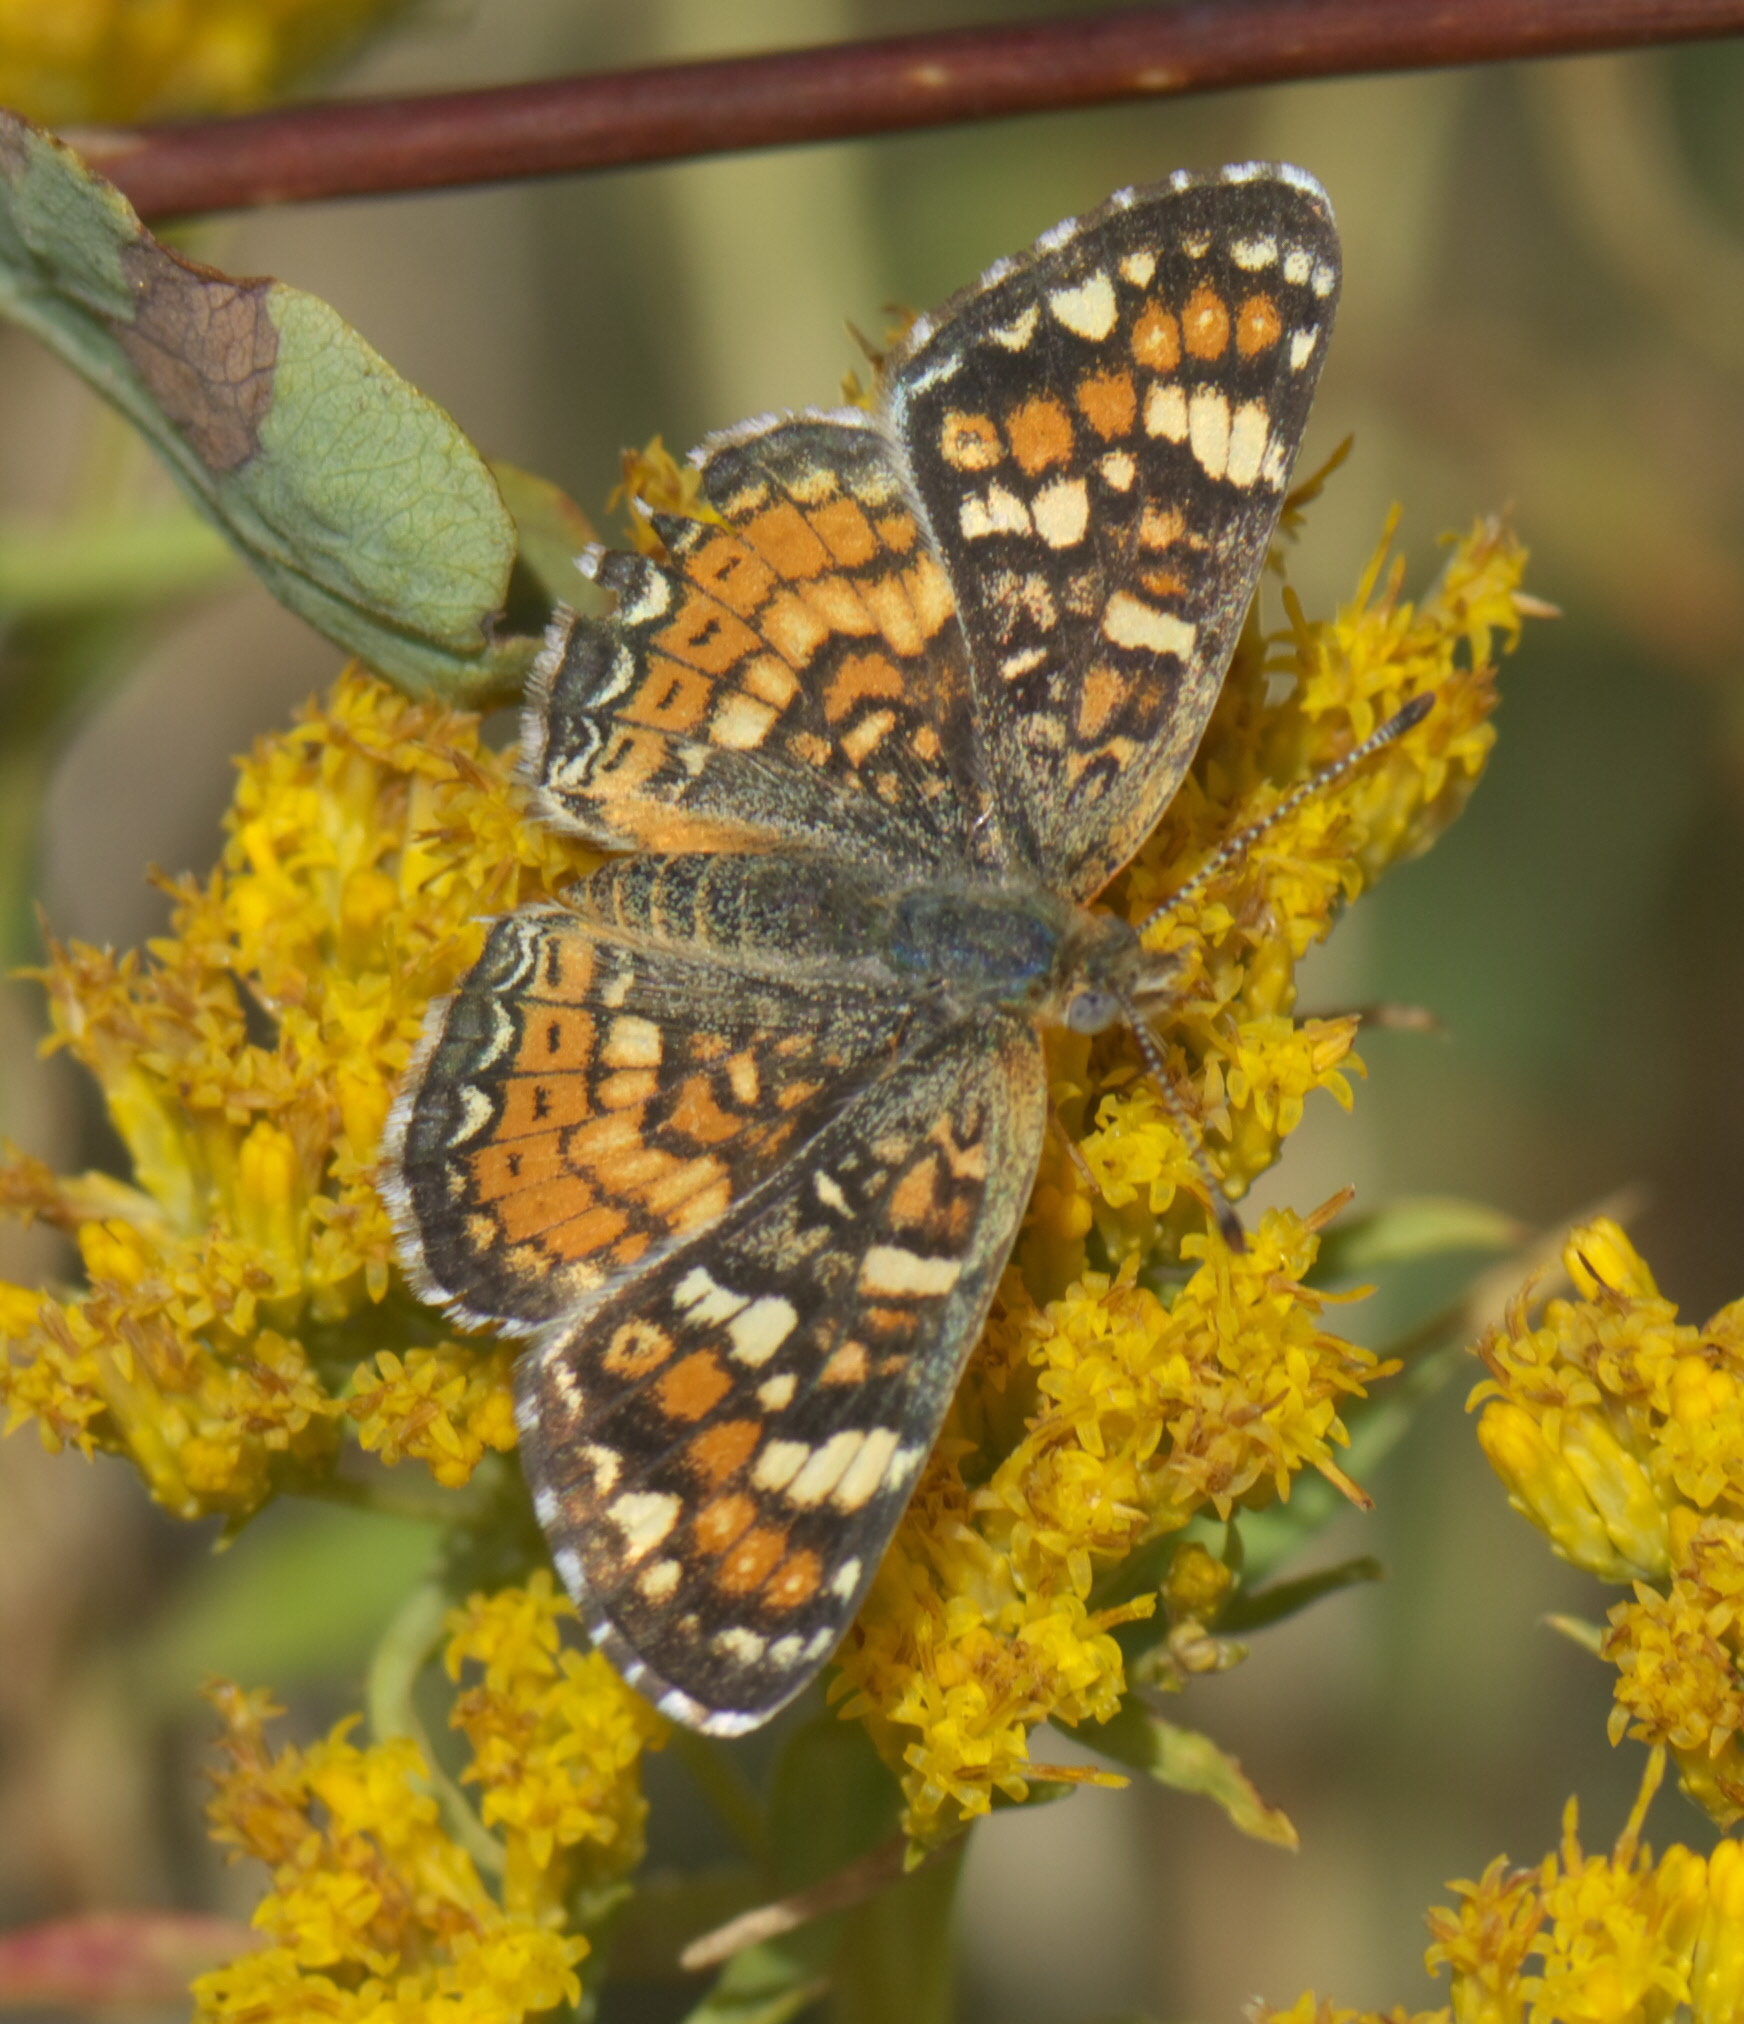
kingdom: Animalia
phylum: Arthropoda
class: Insecta
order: Lepidoptera
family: Nymphalidae
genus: Phyciodes
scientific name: Phyciodes tharos
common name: Pearl crescent
